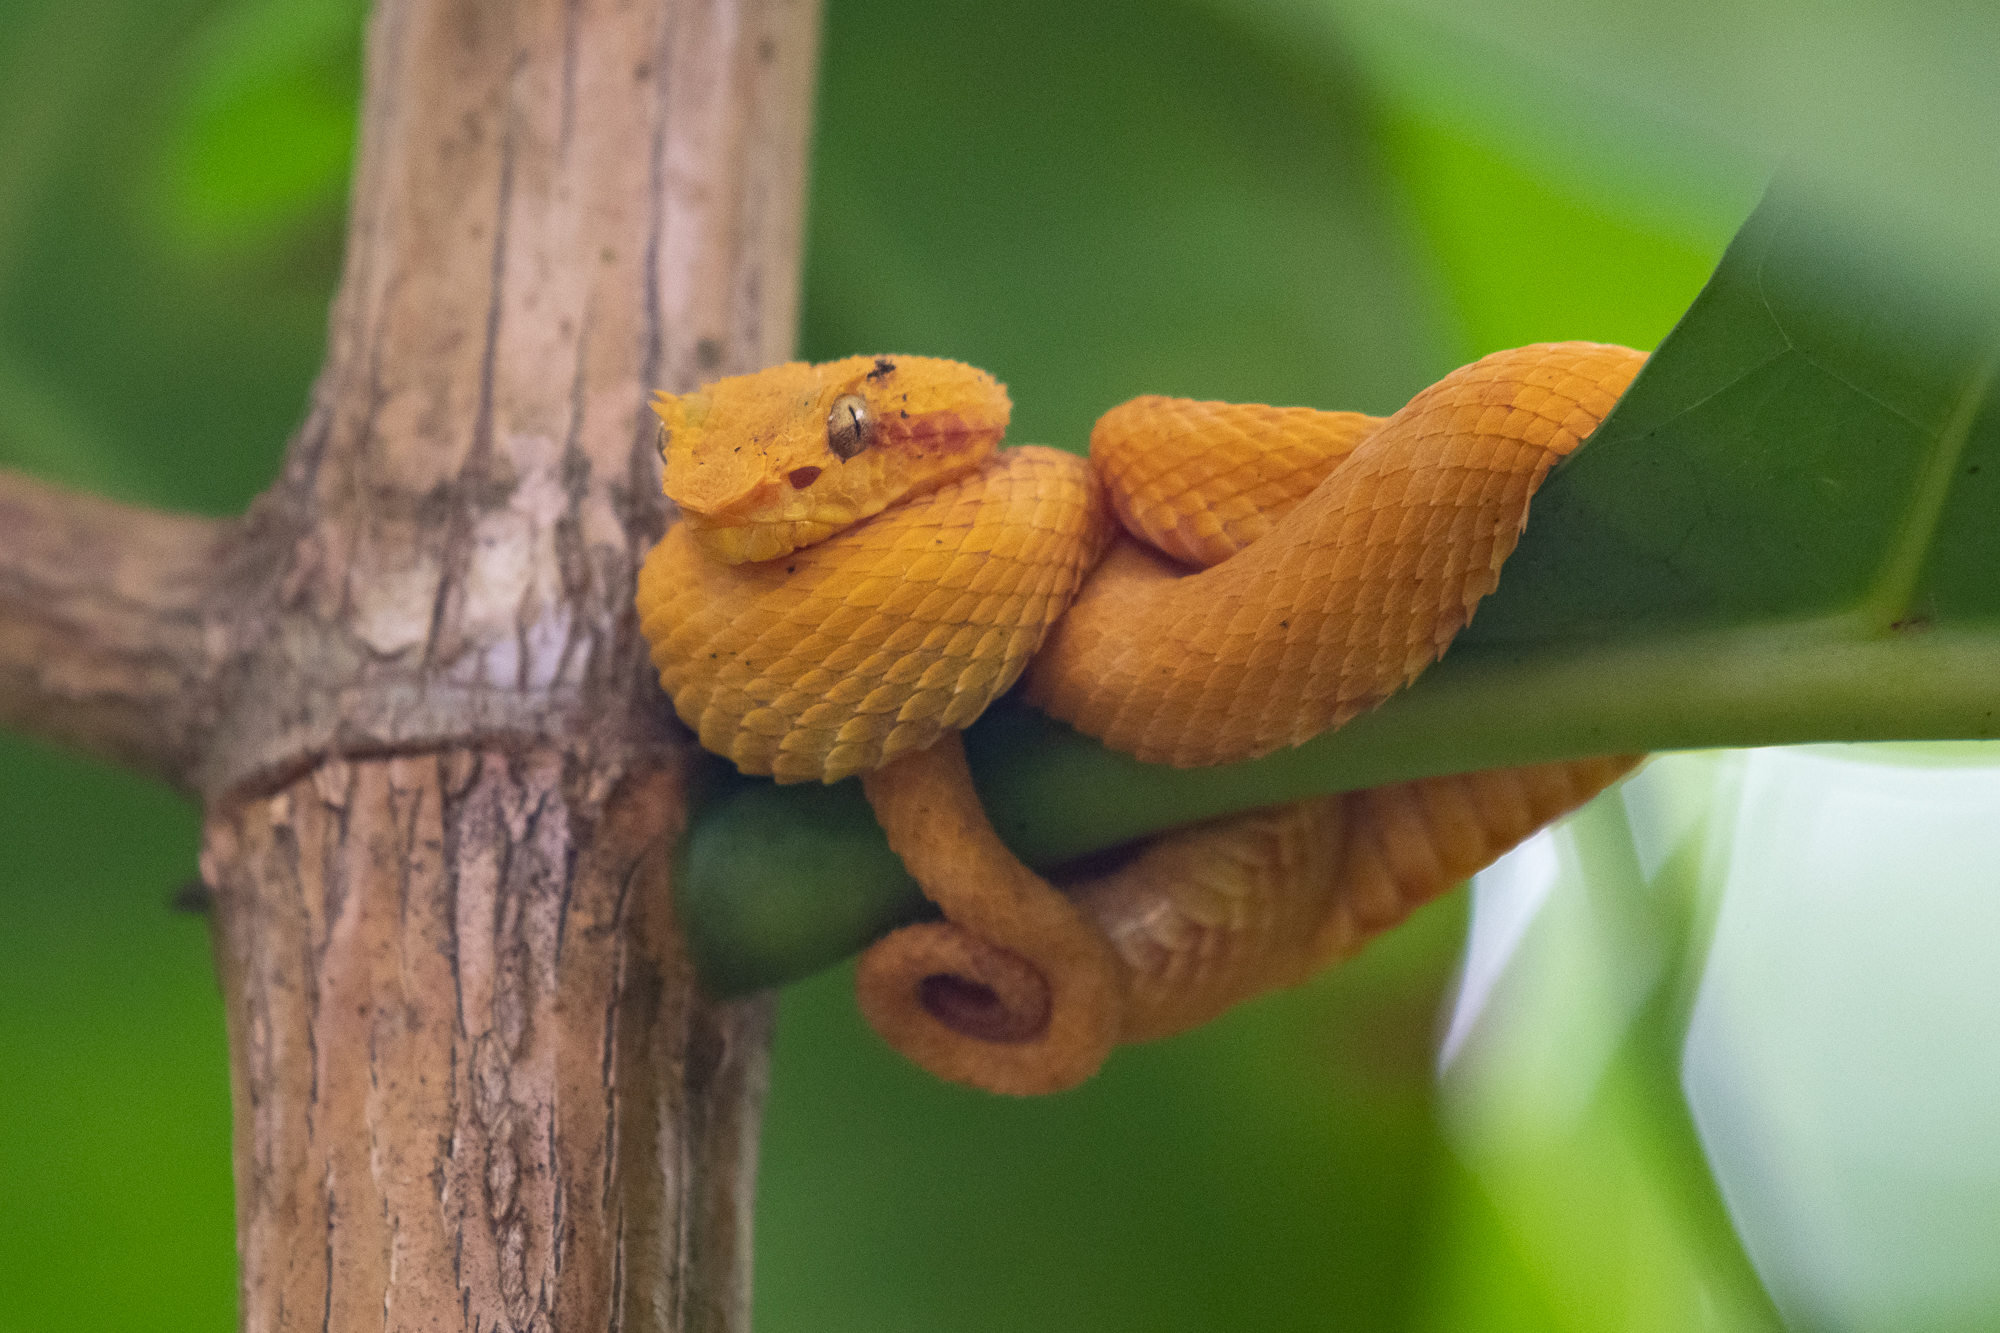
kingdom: Animalia
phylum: Chordata
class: Squamata
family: Viperidae
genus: Bothriechis
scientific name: Bothriechis schlegelii
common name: Eyelash viper
